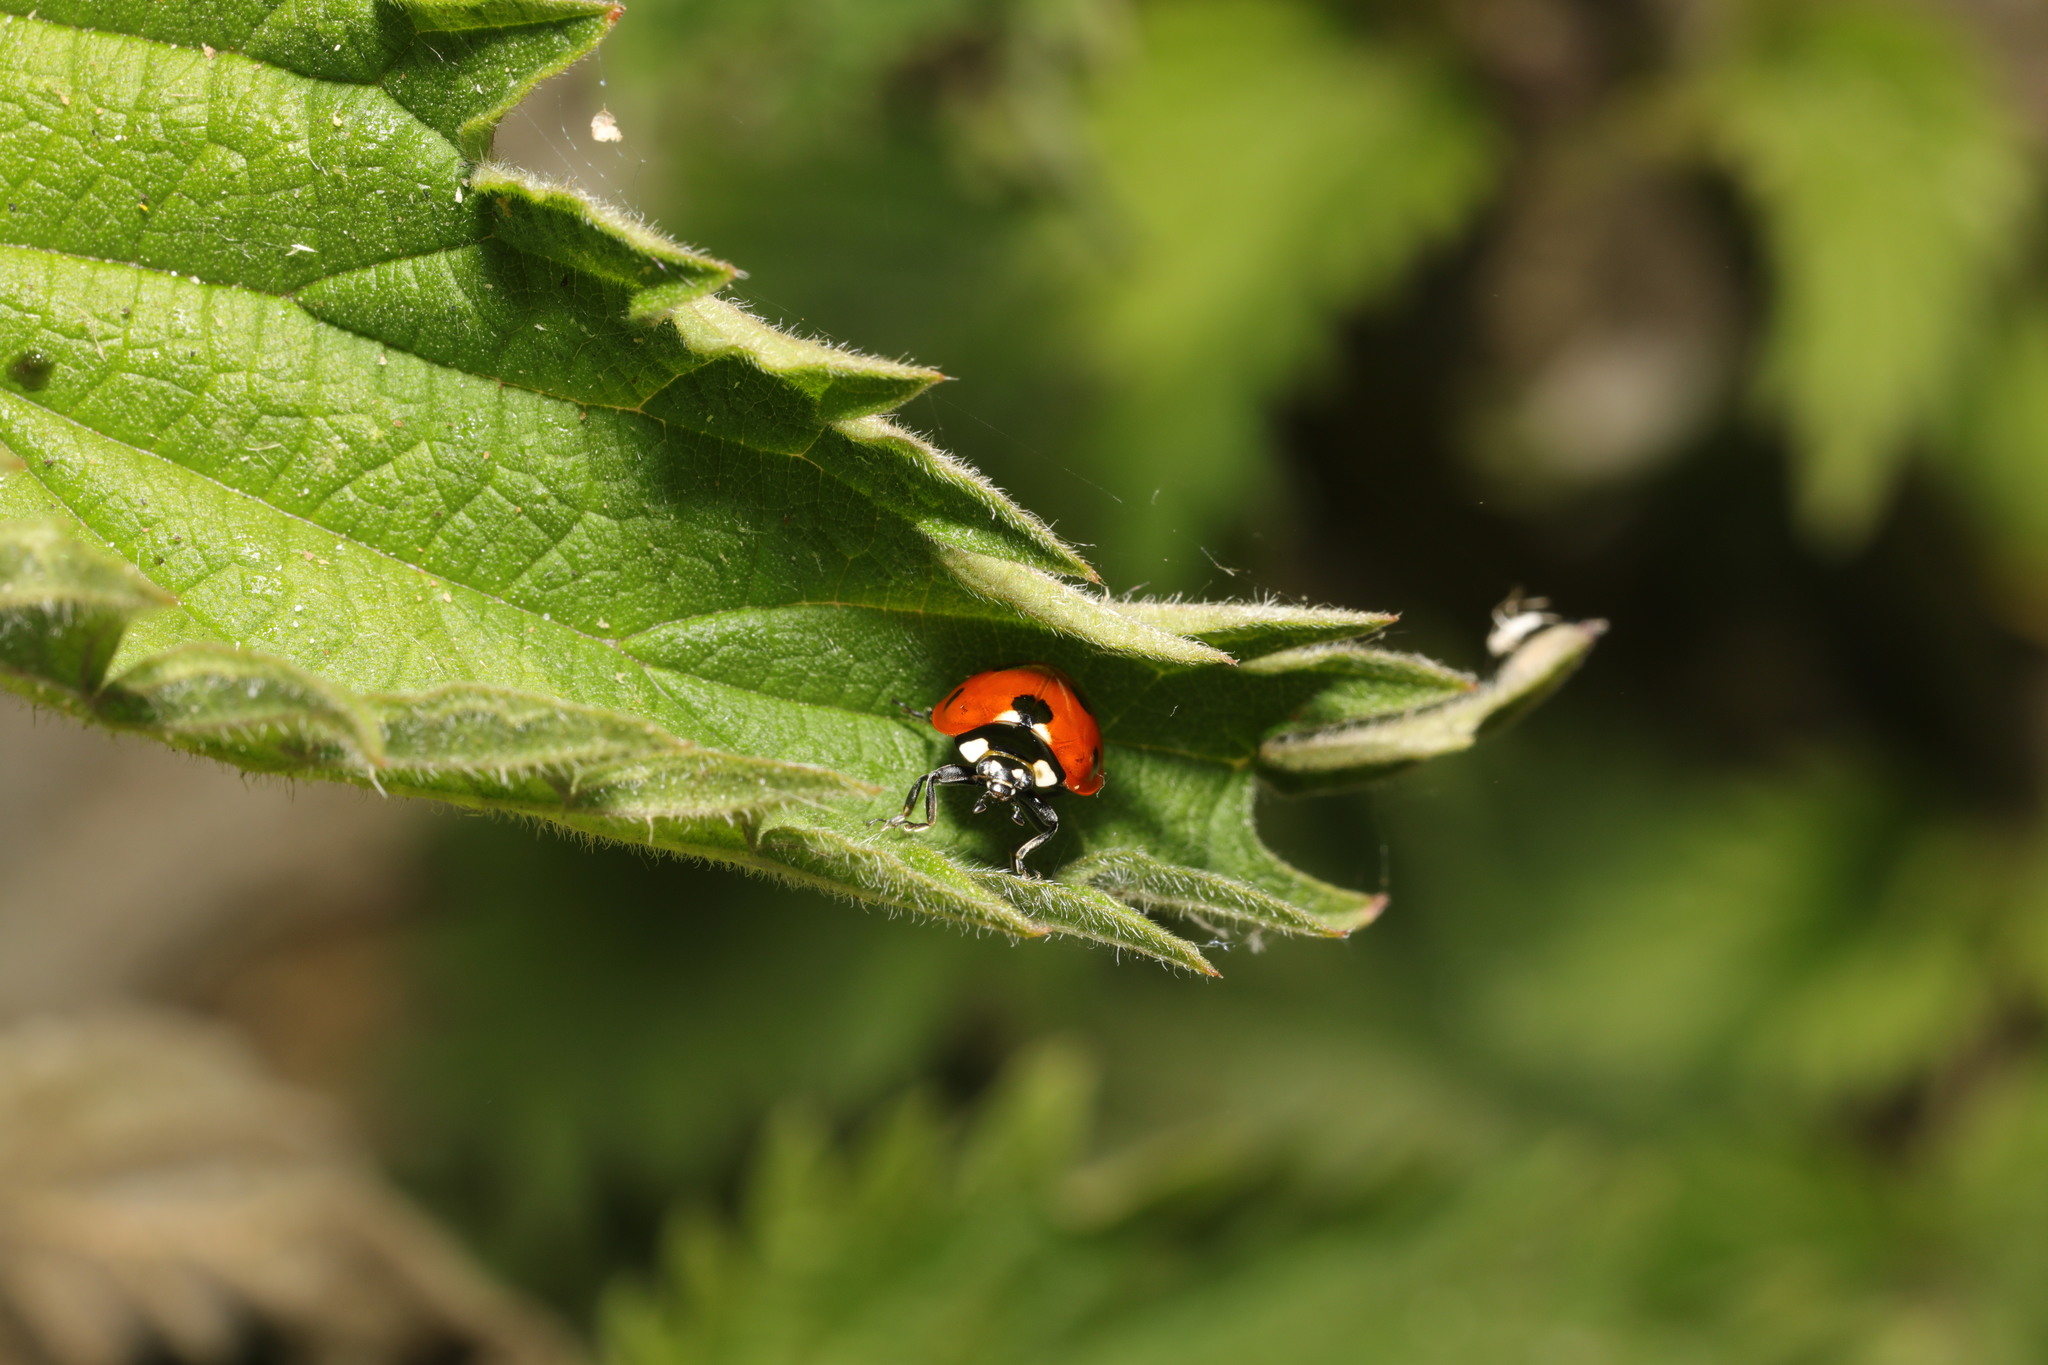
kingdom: Animalia
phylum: Arthropoda
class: Insecta
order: Coleoptera
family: Coccinellidae
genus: Coccinella
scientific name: Coccinella septempunctata
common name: Sevenspotted lady beetle
